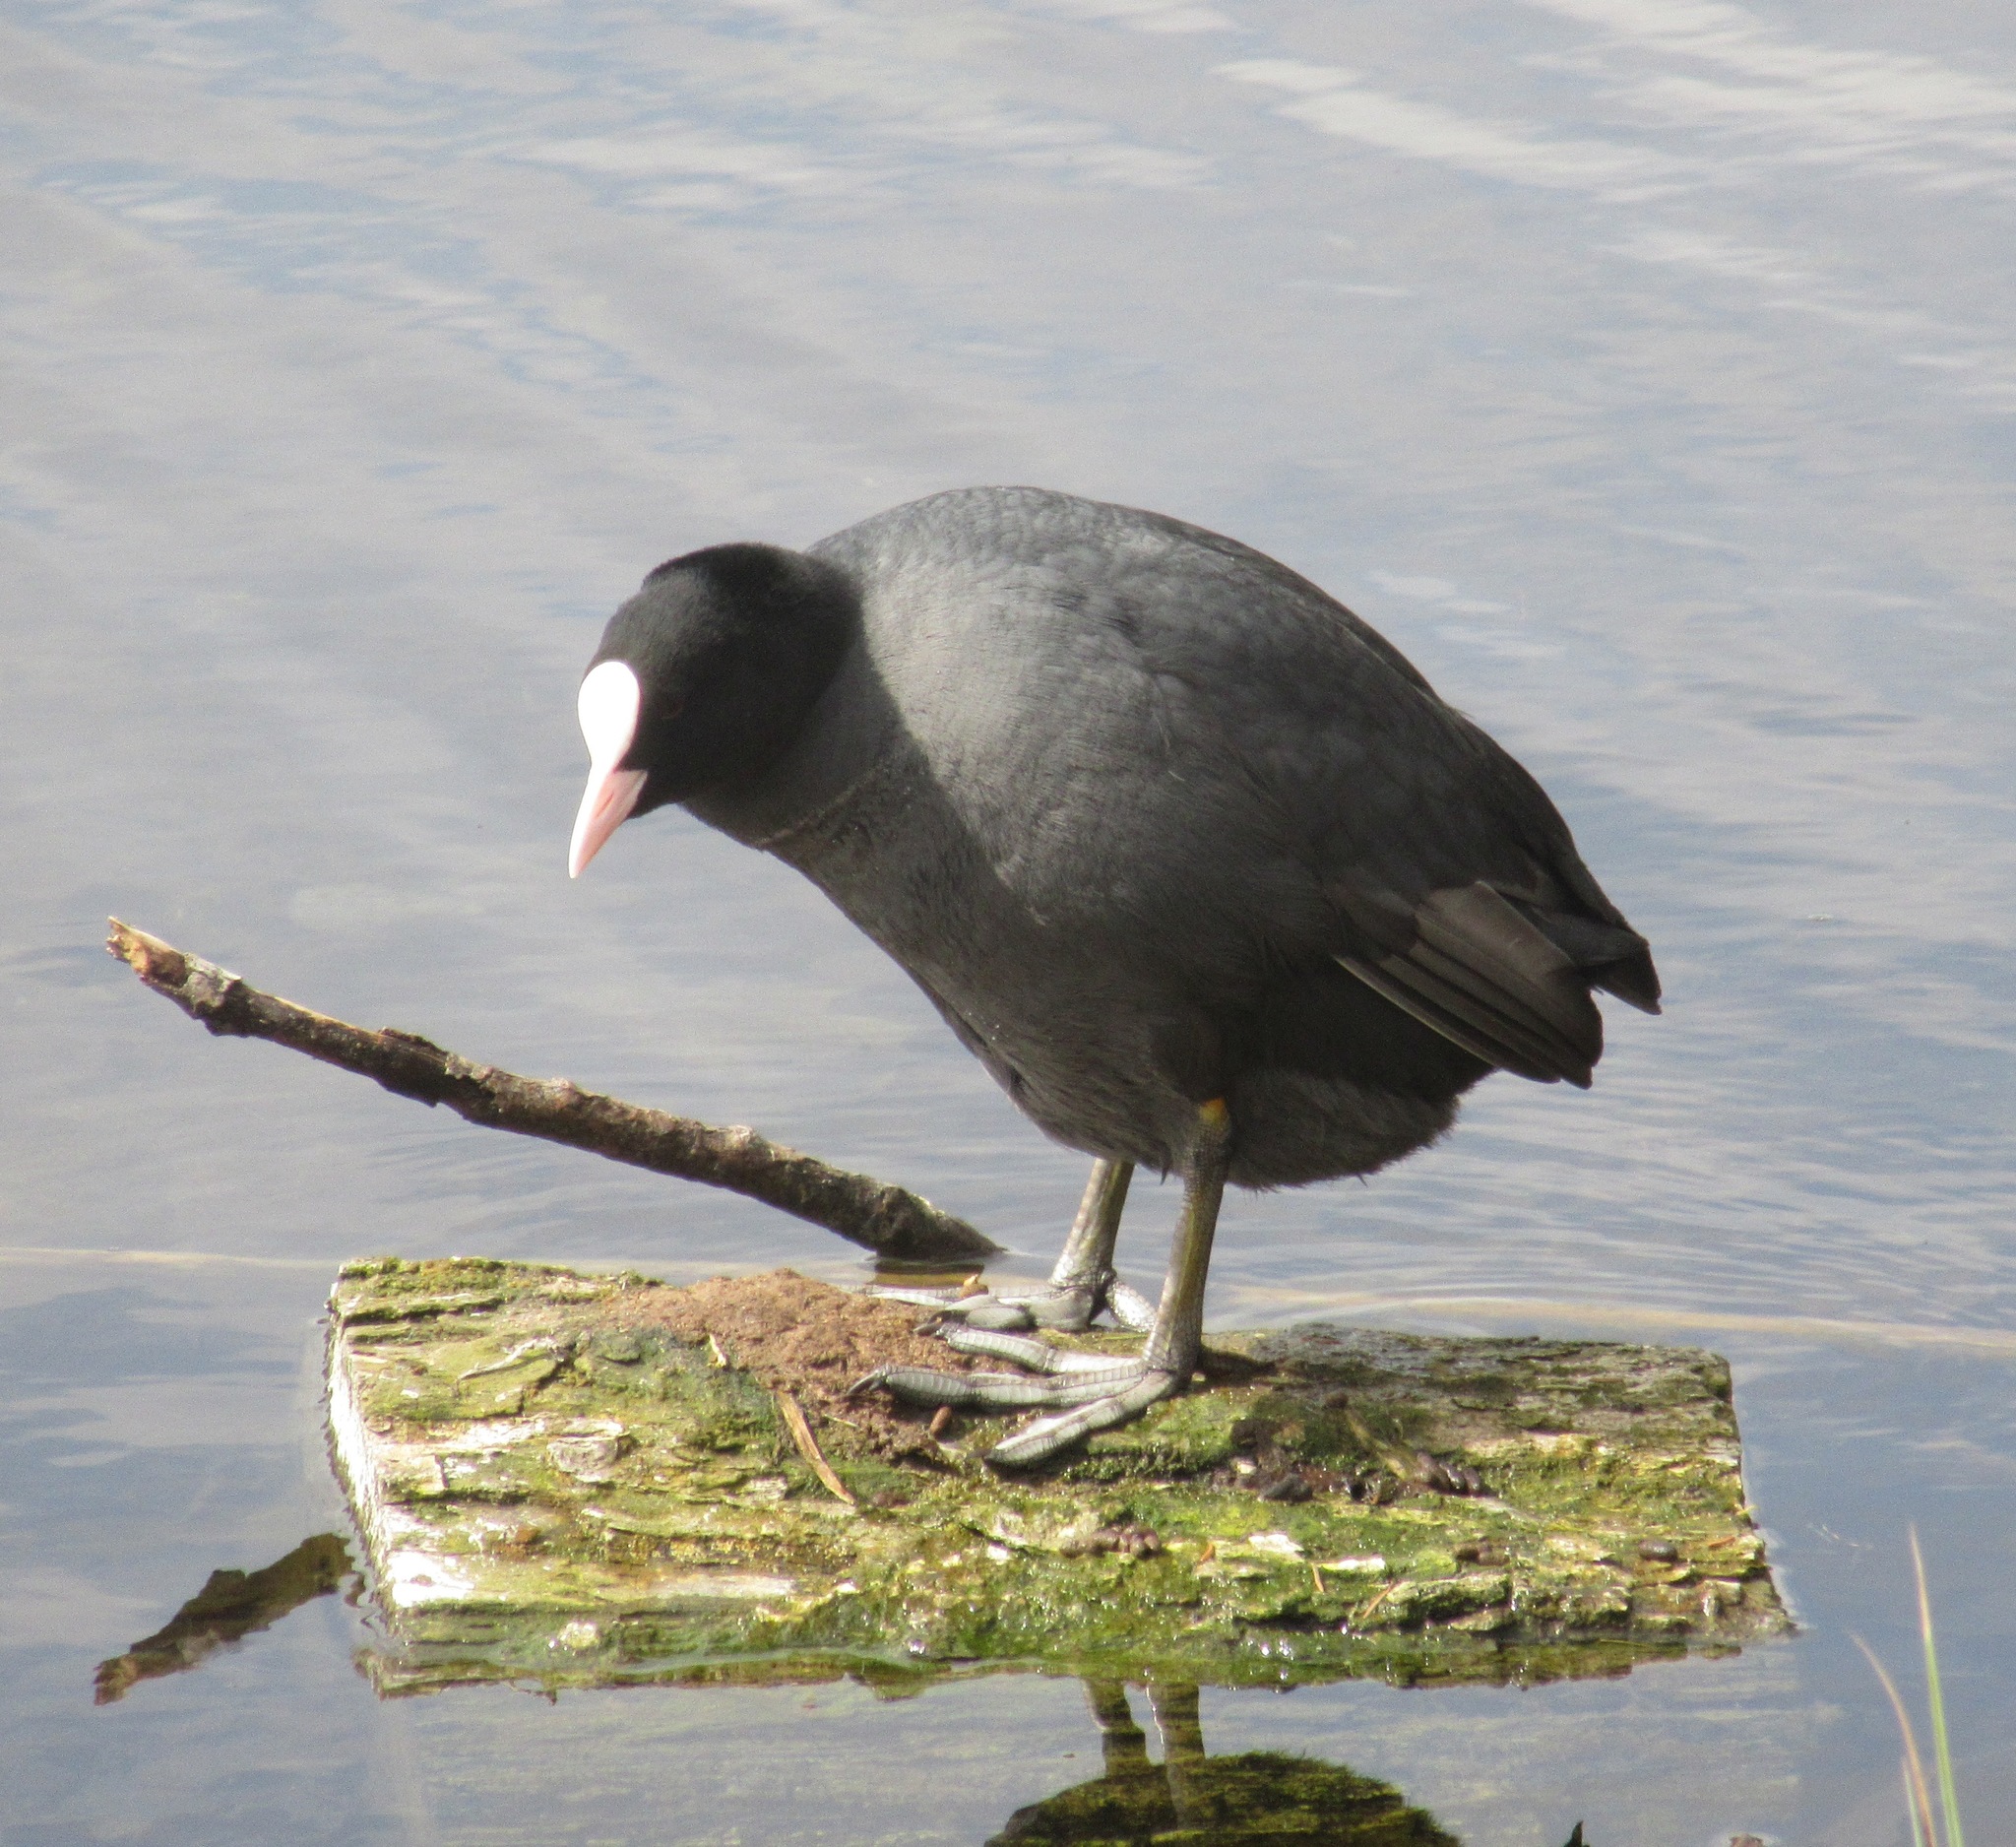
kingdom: Animalia
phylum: Chordata
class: Aves
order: Gruiformes
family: Rallidae
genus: Fulica
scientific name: Fulica atra
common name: Eurasian coot
